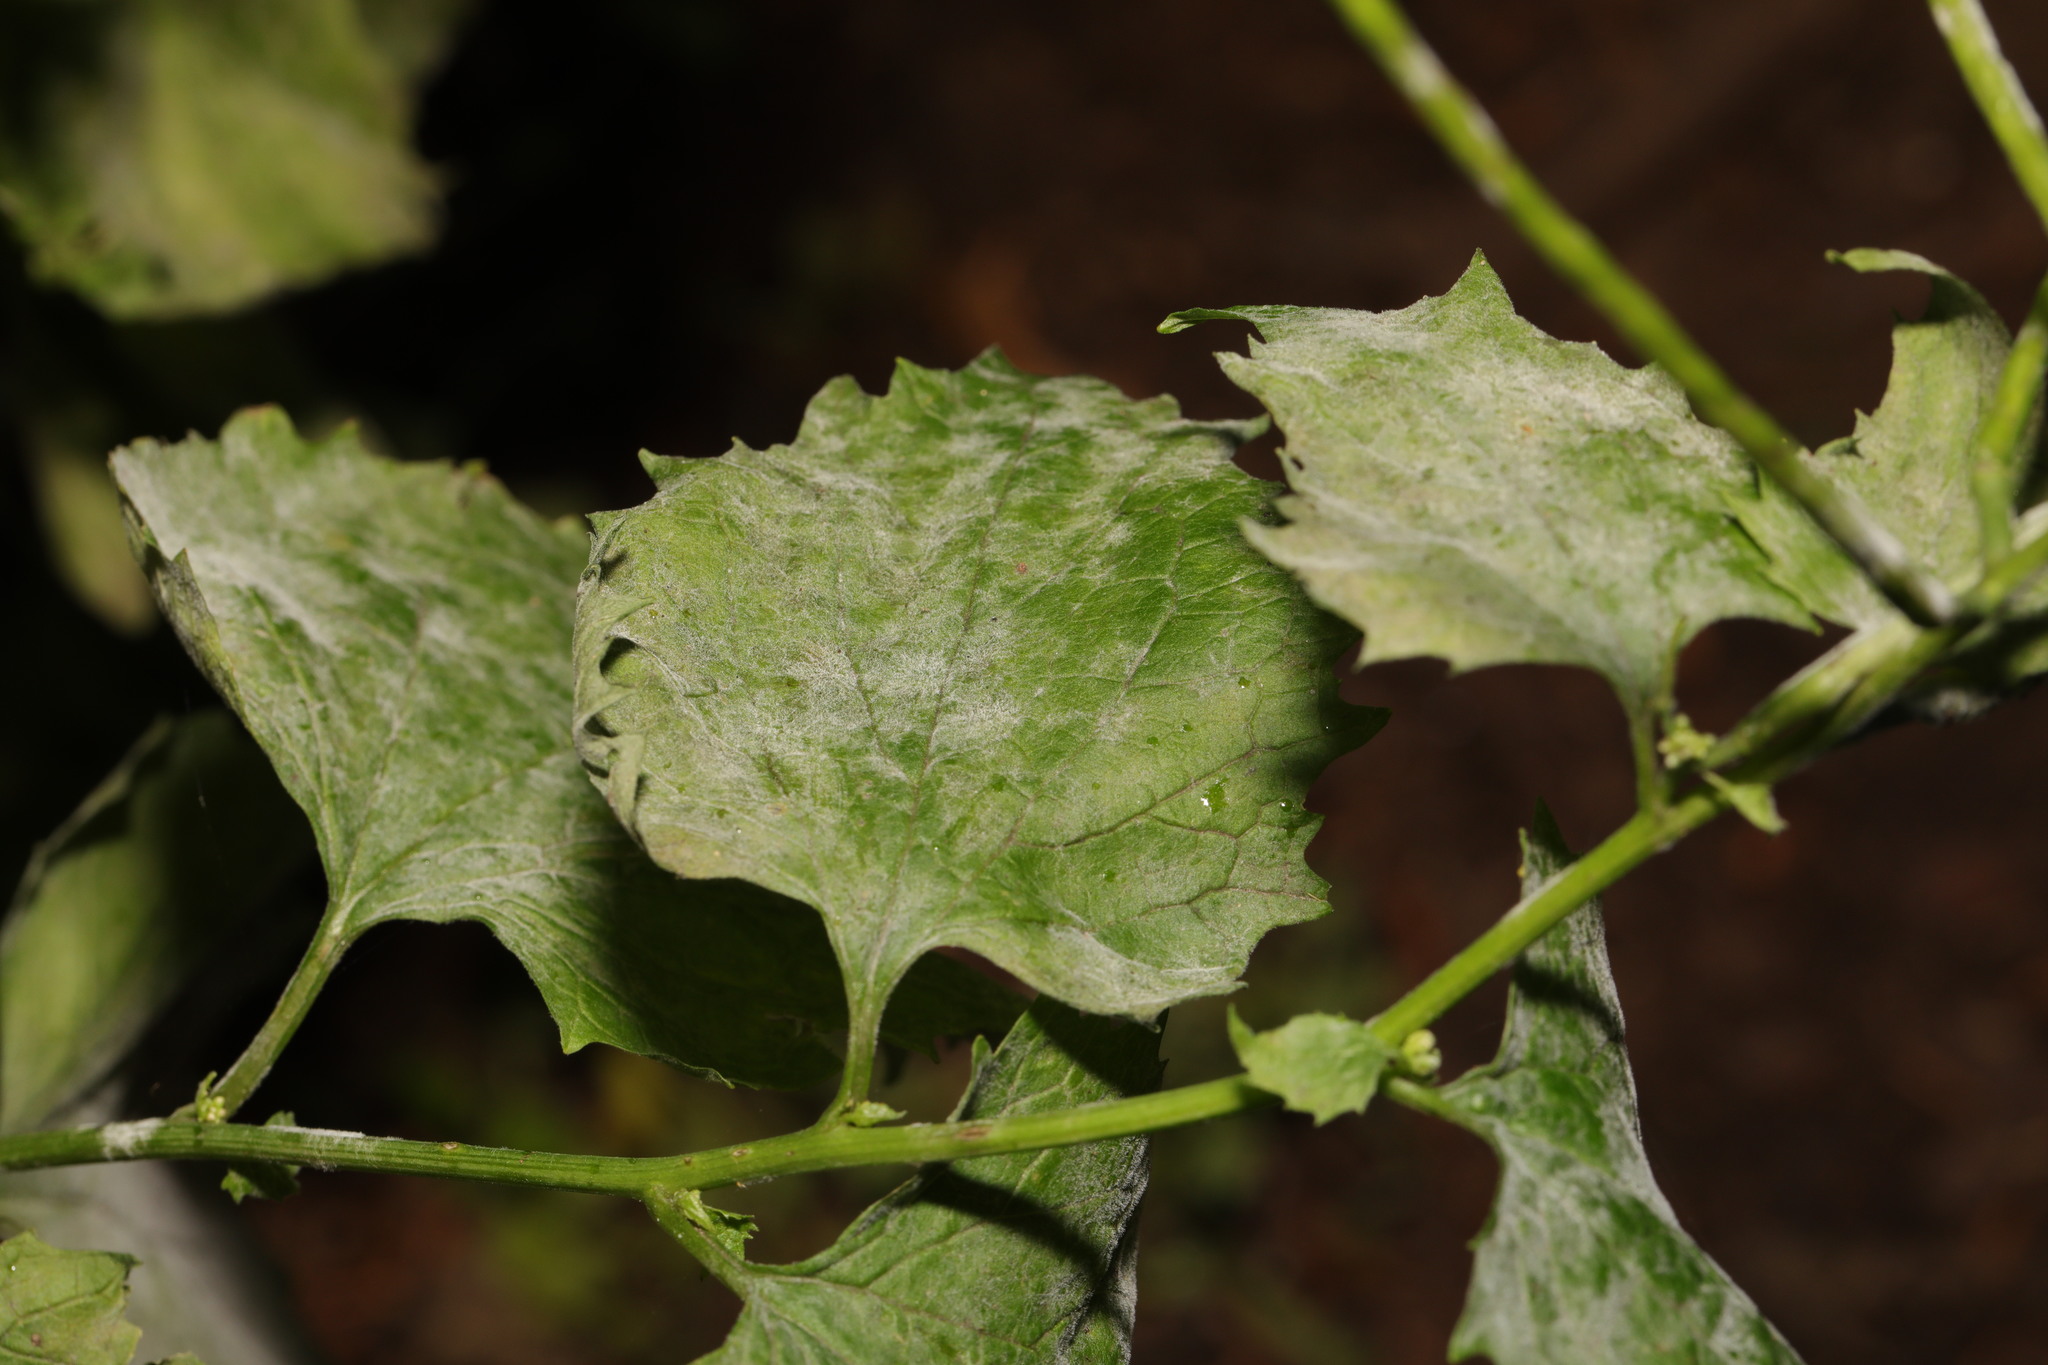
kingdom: Fungi
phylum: Ascomycota
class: Leotiomycetes
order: Helotiales
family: Erysiphaceae
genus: Erysiphe
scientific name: Erysiphe cruciferarum
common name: Brassica powdery mildew
